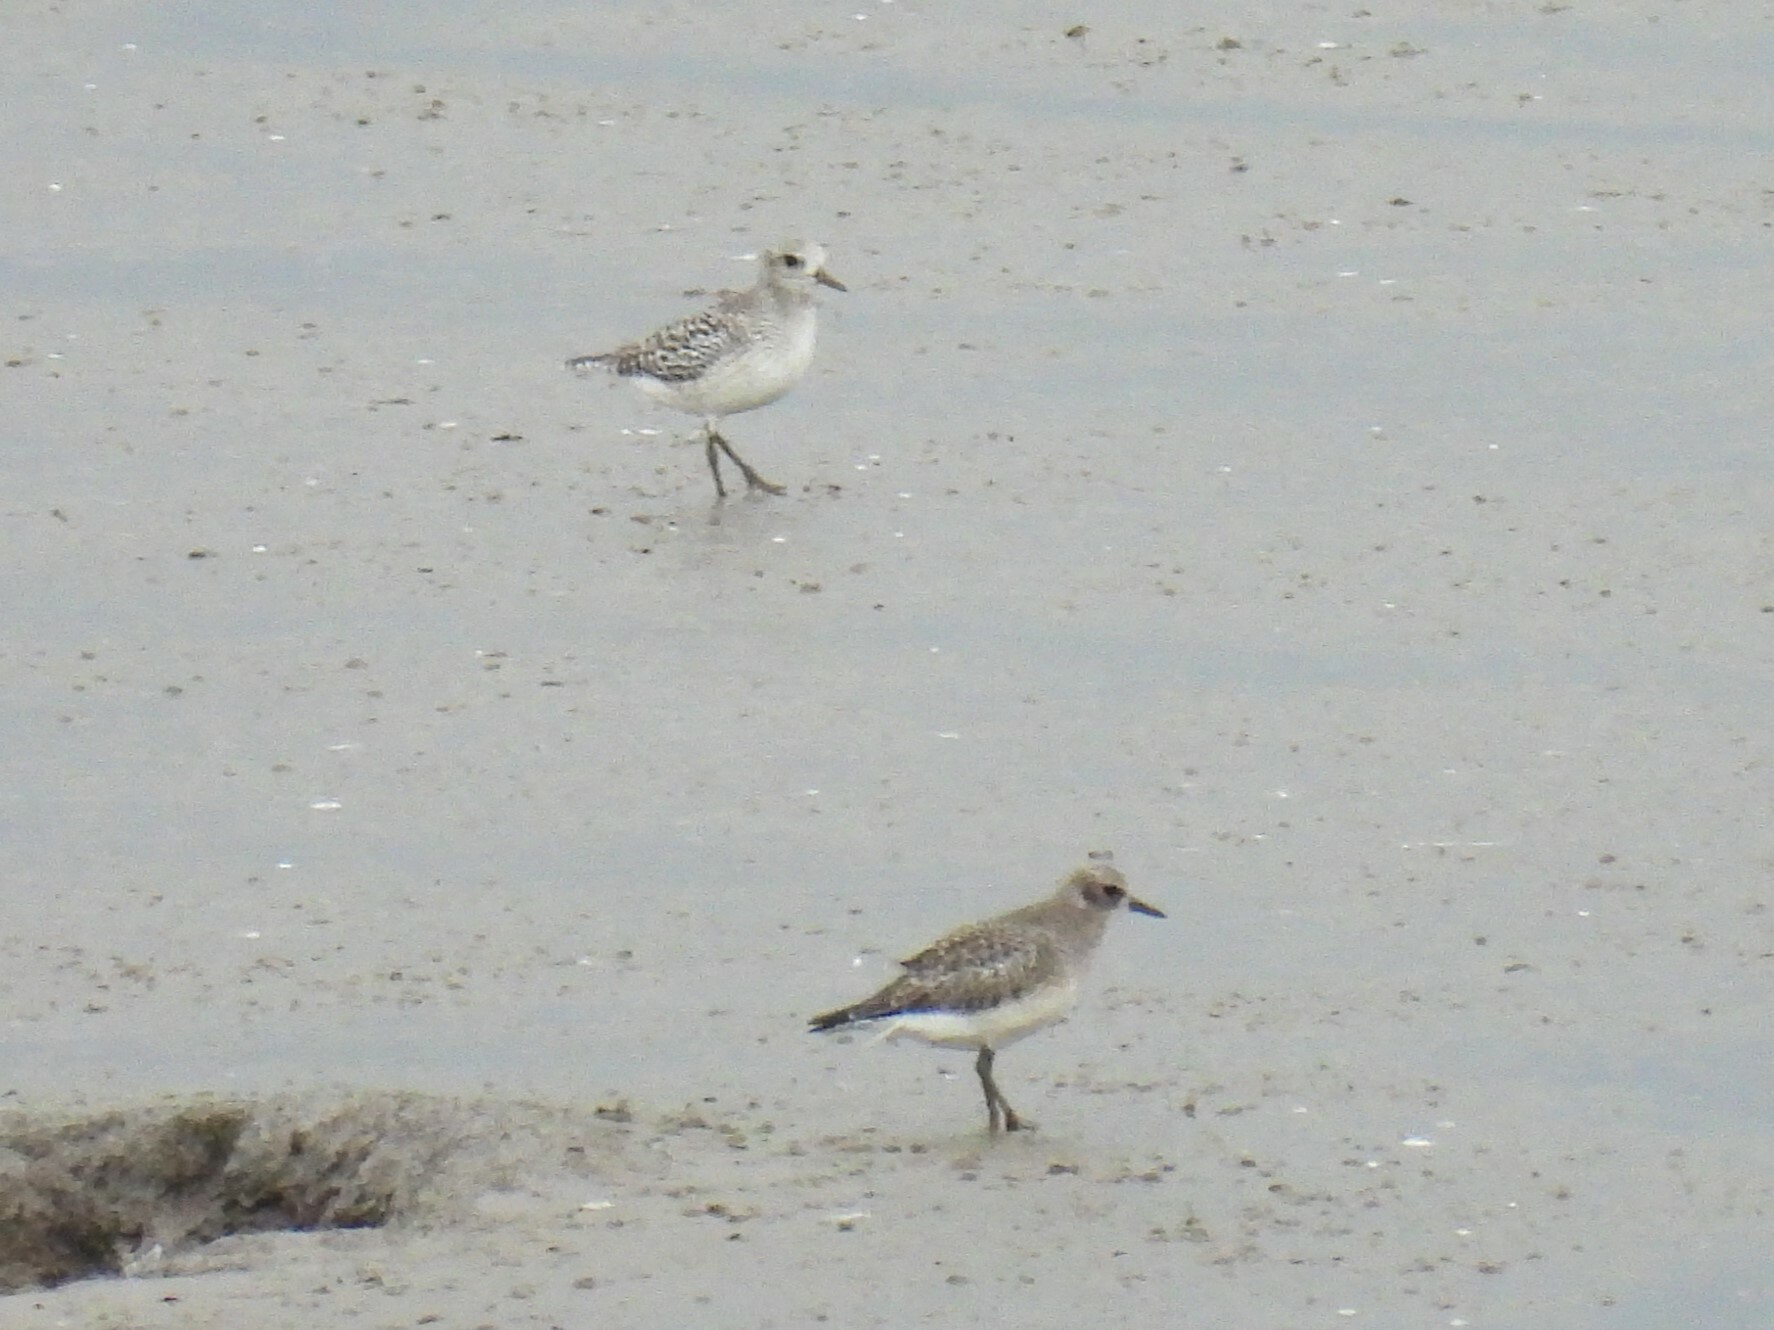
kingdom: Animalia
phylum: Chordata
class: Aves
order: Charadriiformes
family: Charadriidae
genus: Pluvialis
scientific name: Pluvialis squatarola
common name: Grey plover
